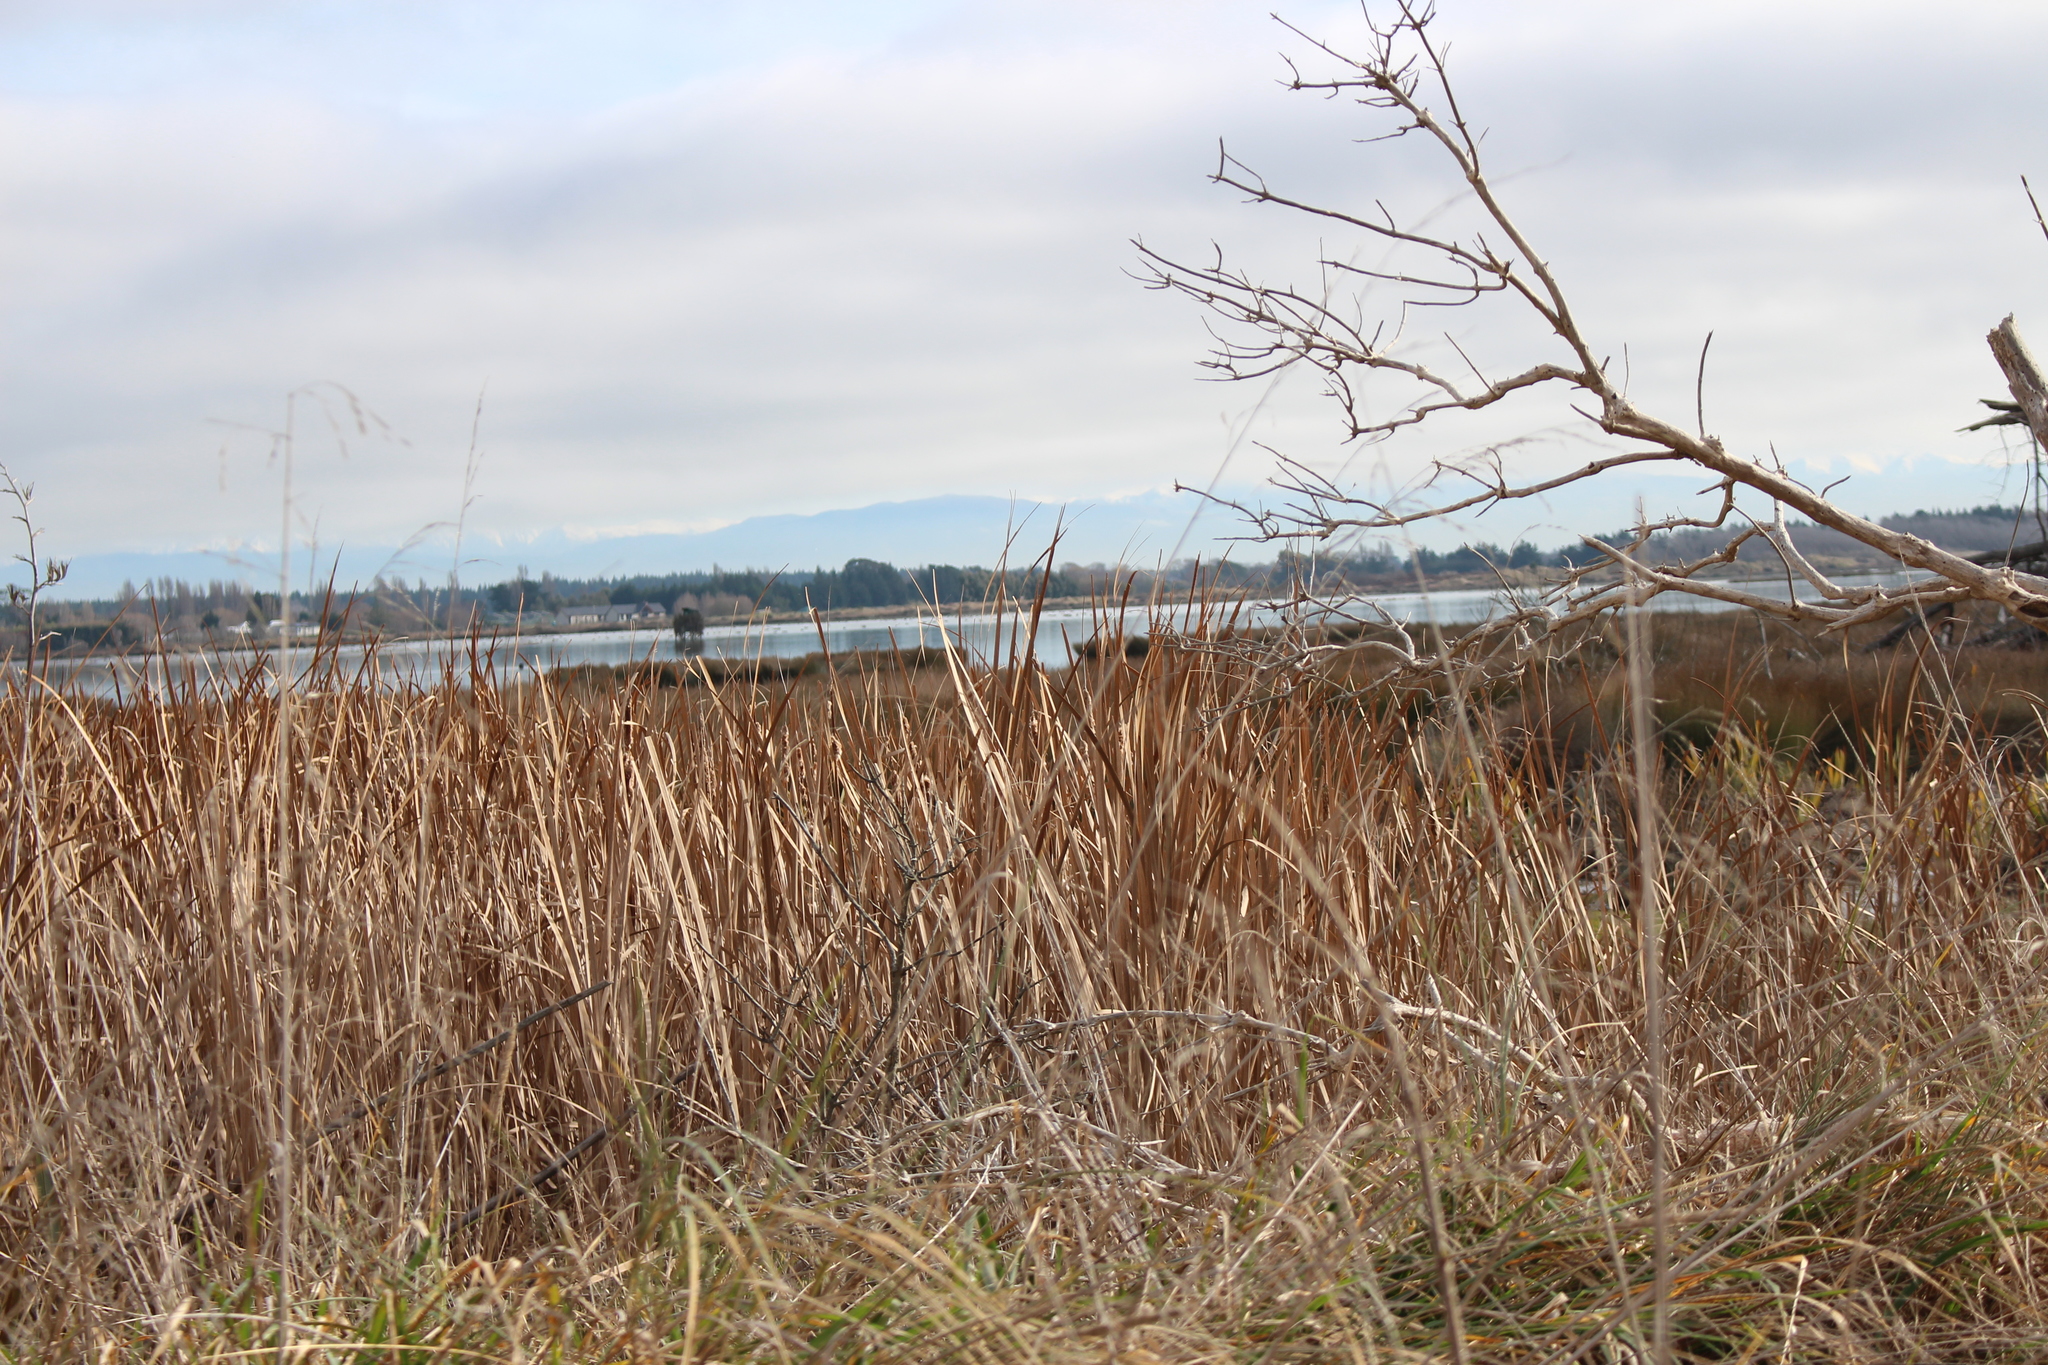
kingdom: Plantae
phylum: Tracheophyta
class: Liliopsida
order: Poales
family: Typhaceae
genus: Typha
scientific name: Typha orientalis
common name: Bullrush
